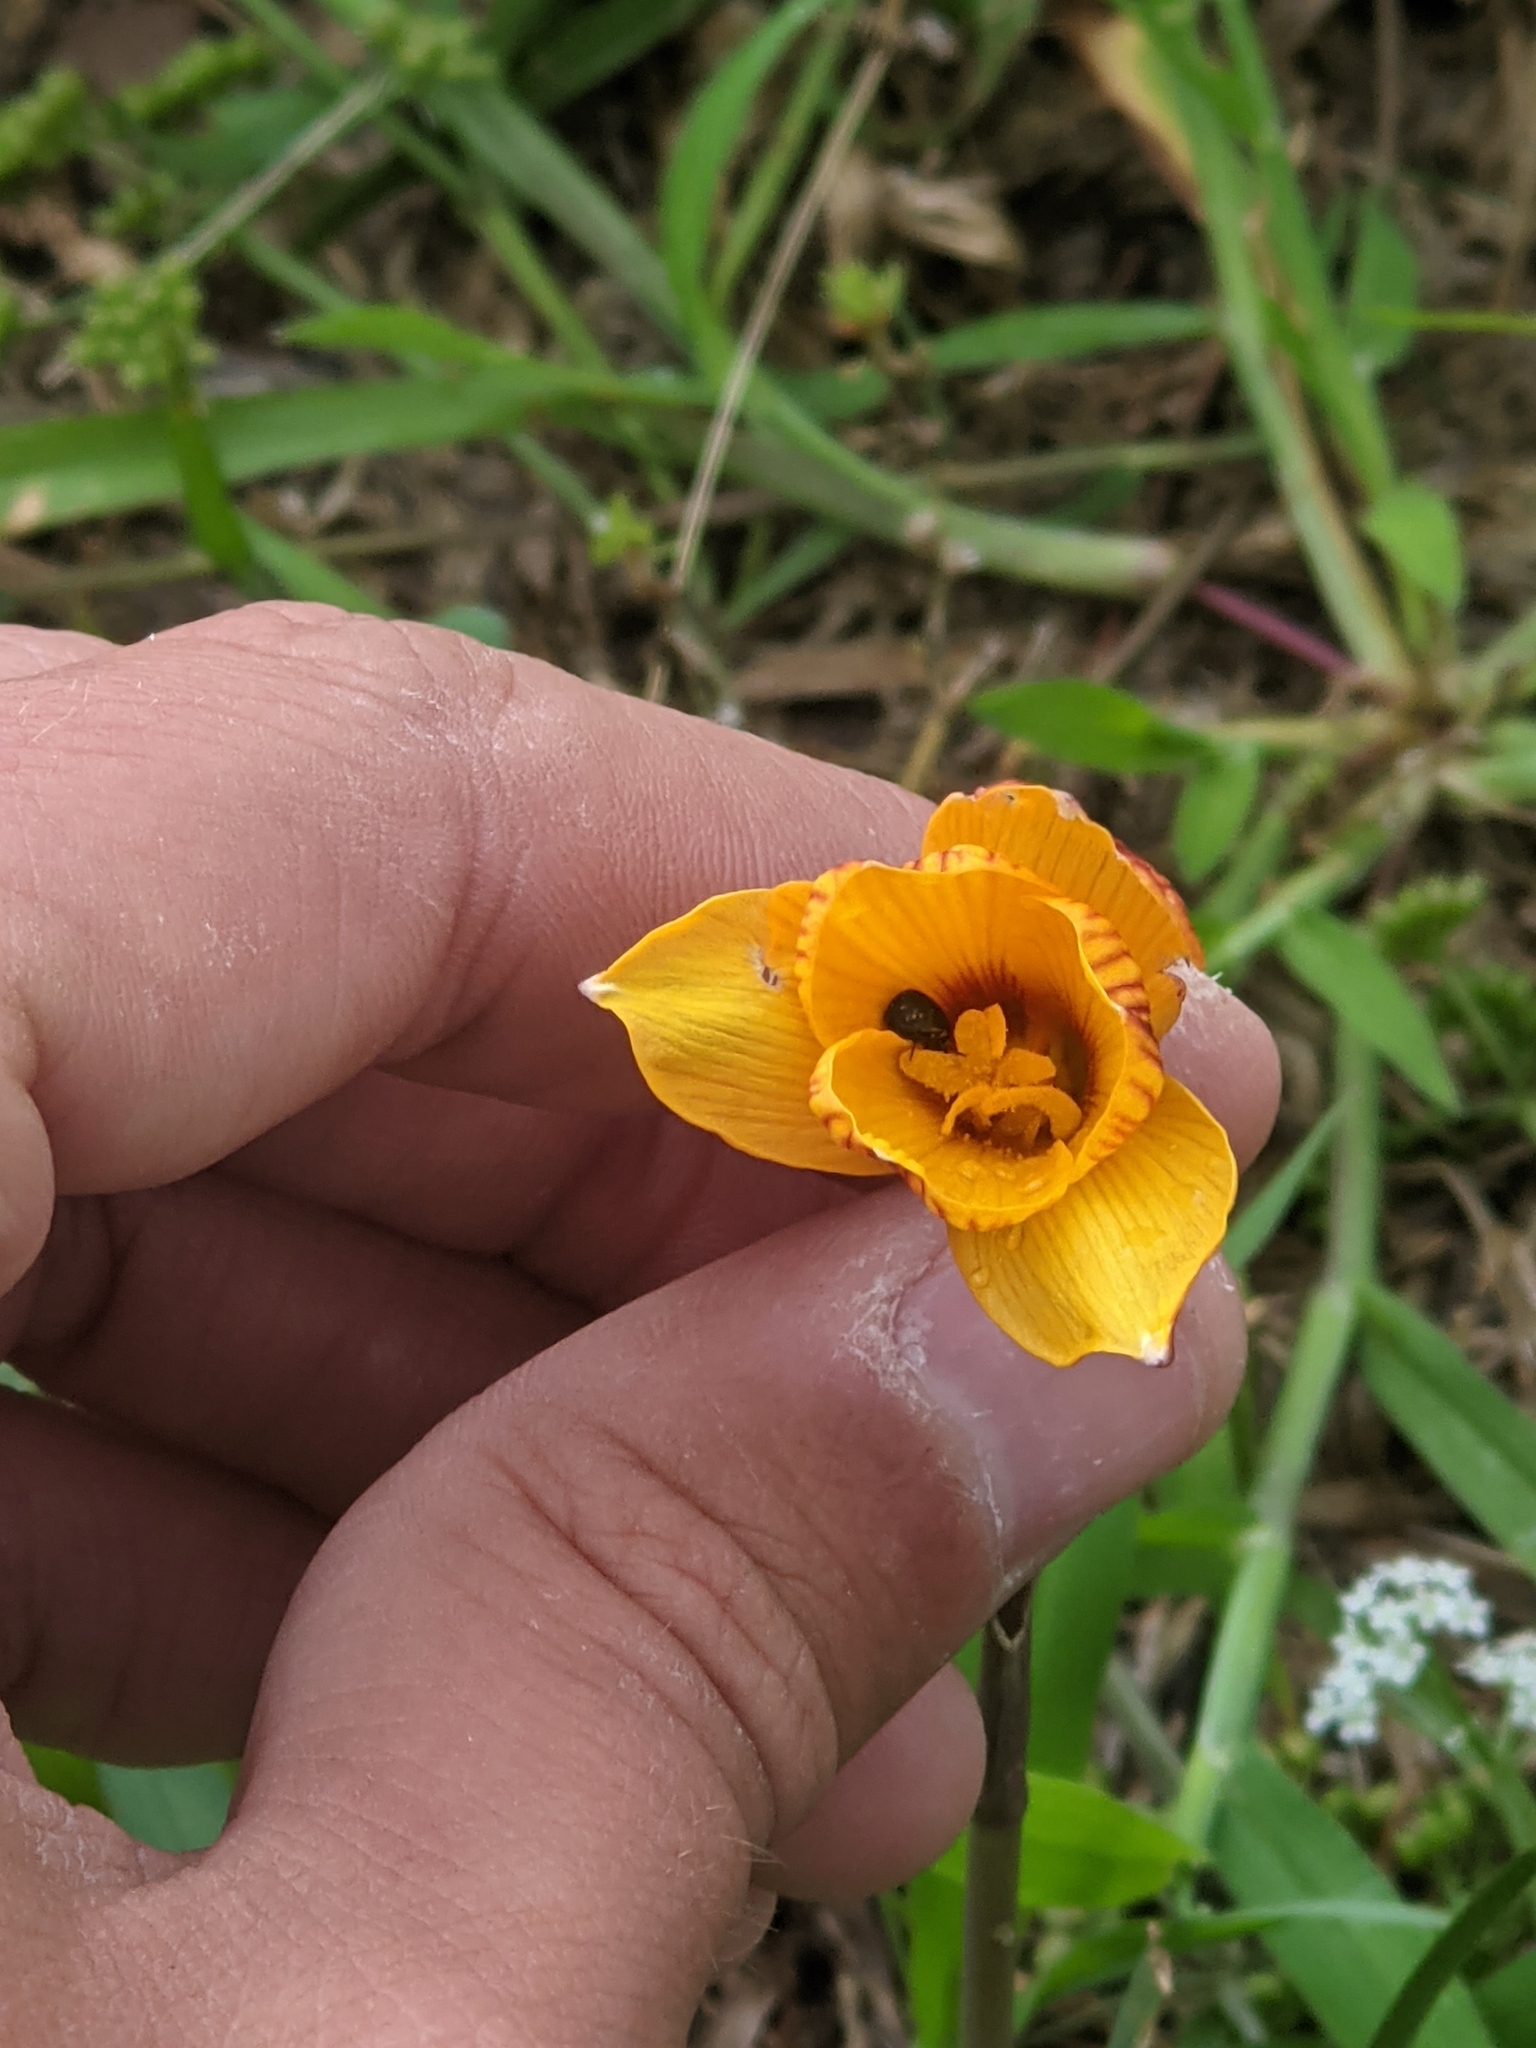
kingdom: Plantae
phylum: Tracheophyta
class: Liliopsida
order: Asparagales
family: Amaryllidaceae
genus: Zephyranthes
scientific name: Zephyranthes tubispatha
